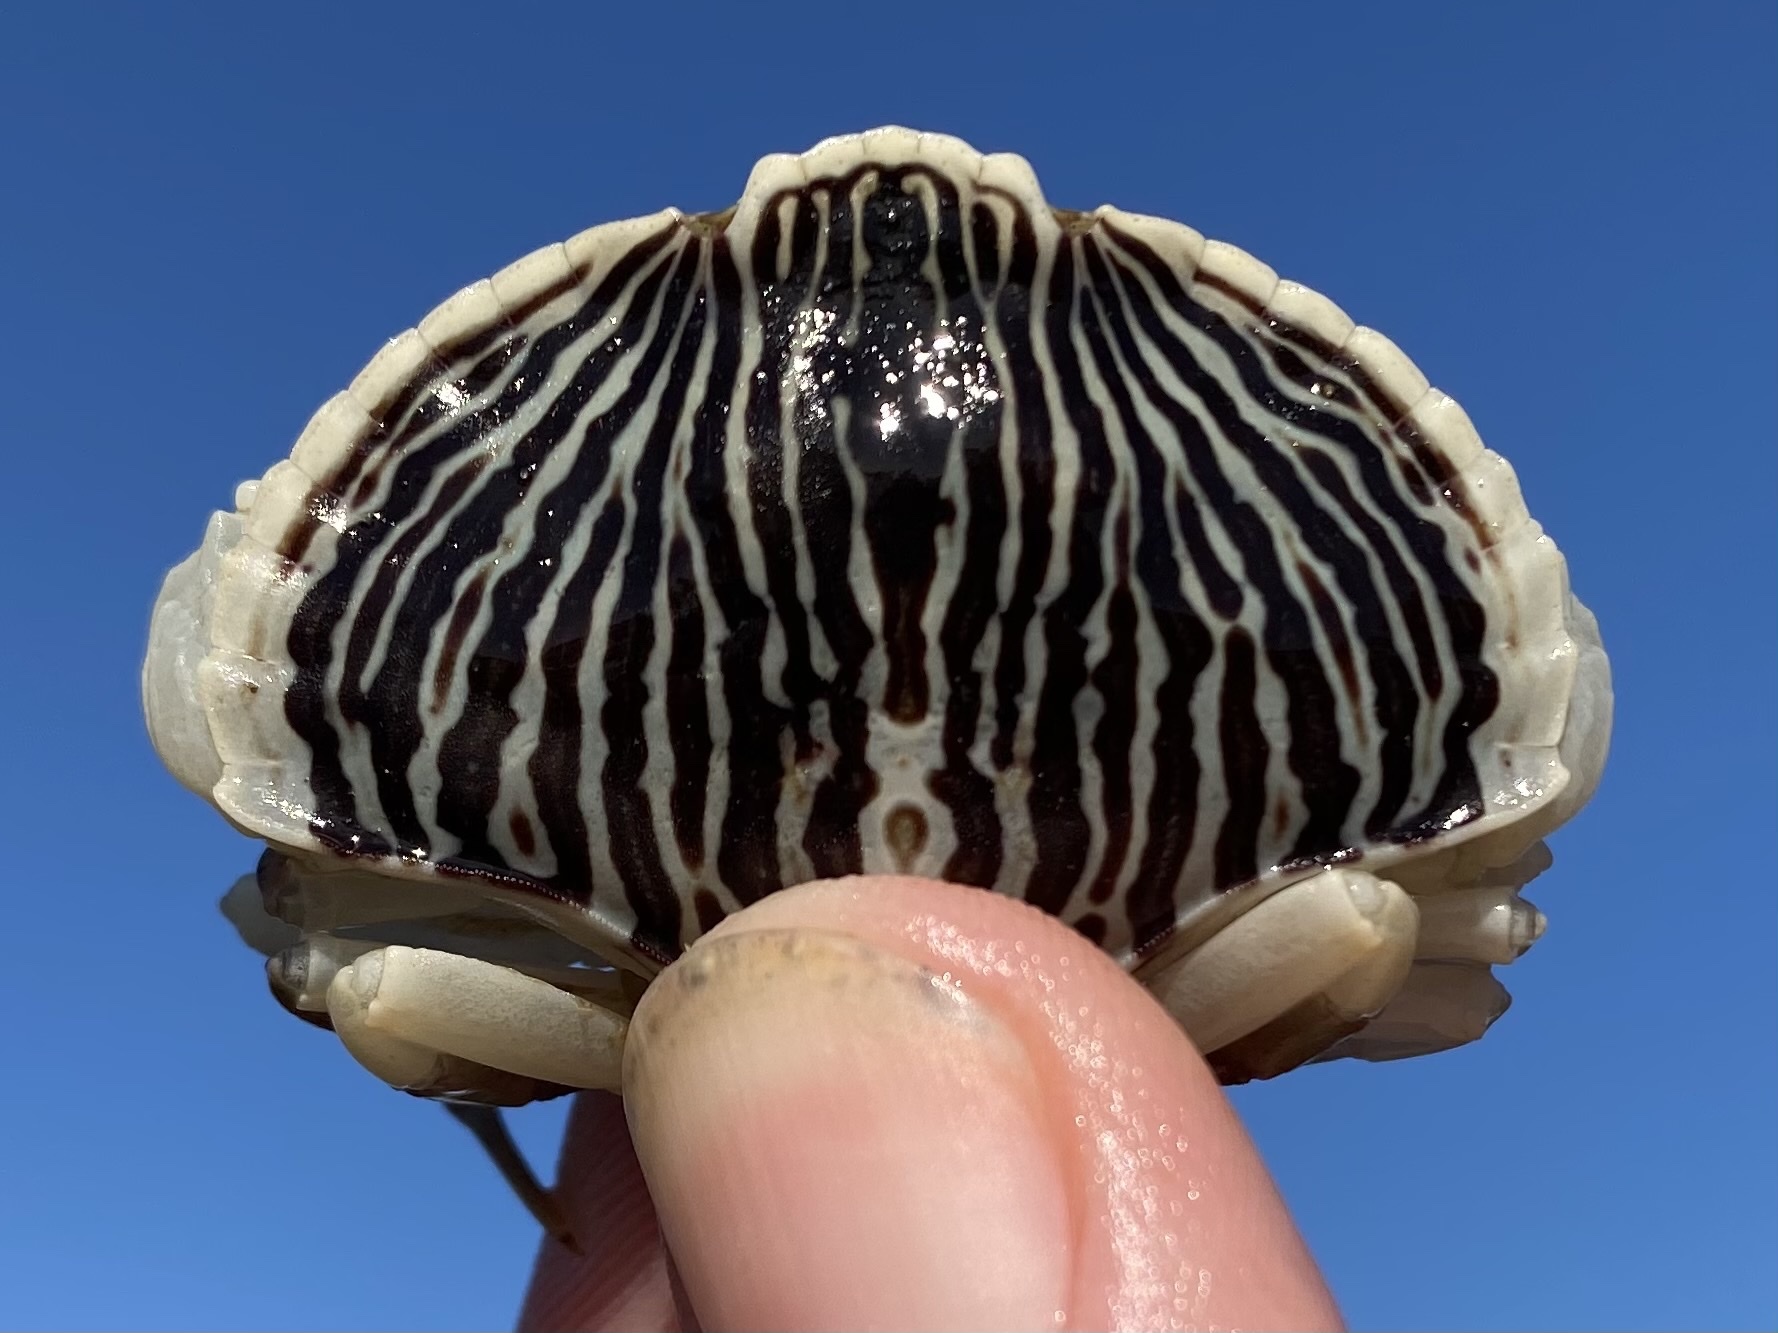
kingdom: Animalia
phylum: Arthropoda
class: Malacostraca
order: Decapoda
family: Cancridae
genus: Cancer
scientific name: Cancer productus
